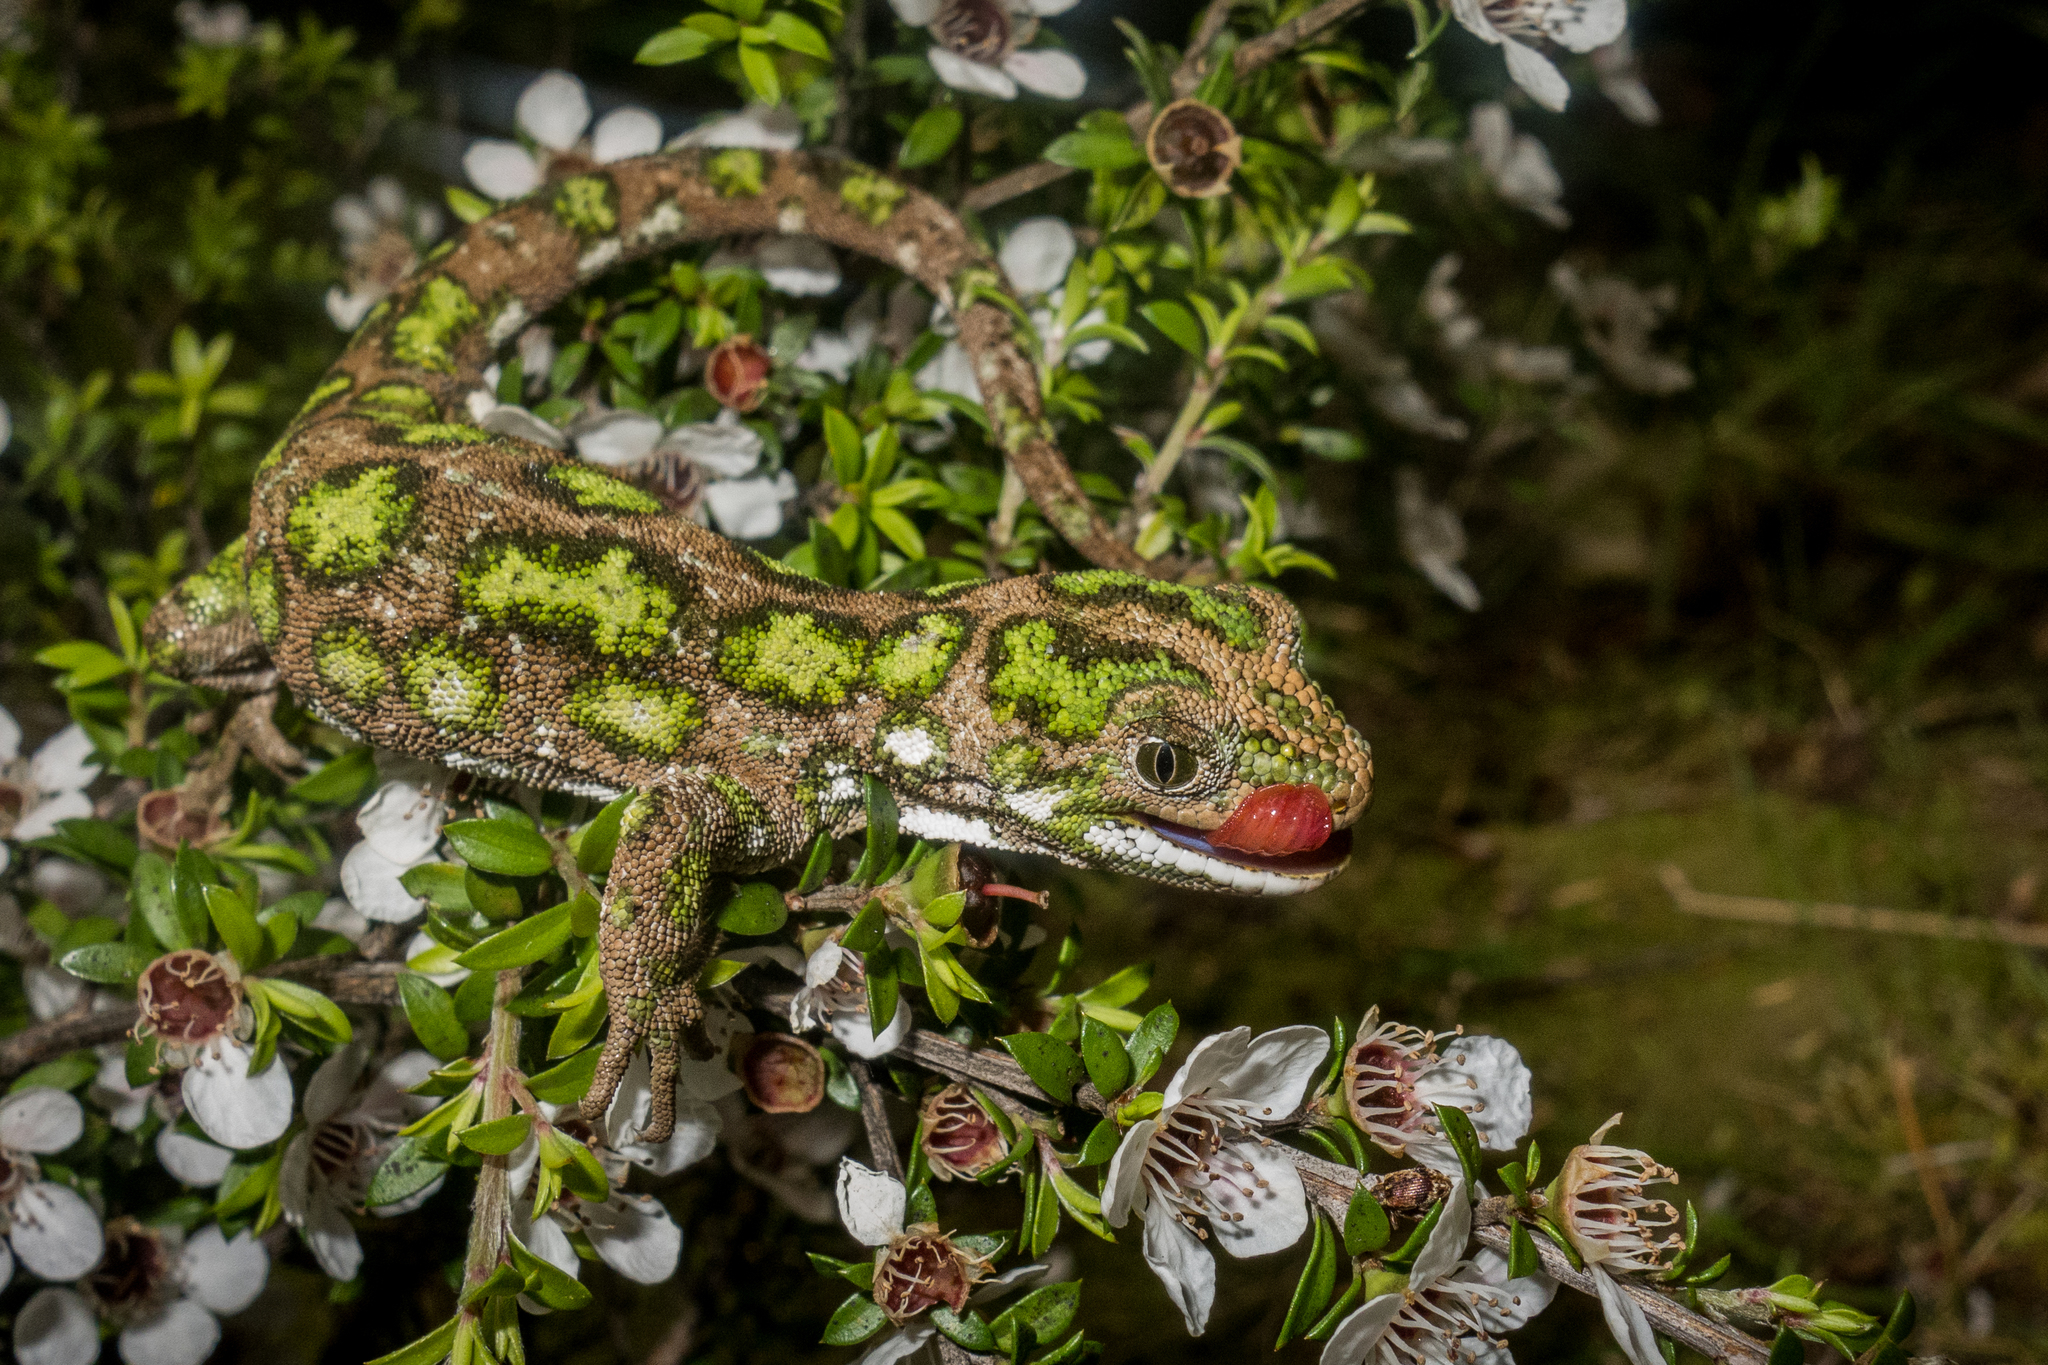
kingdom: Animalia
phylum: Chordata
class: Squamata
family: Diplodactylidae
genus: Naultinus
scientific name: Naultinus stellatus
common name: Nelson green gecko
